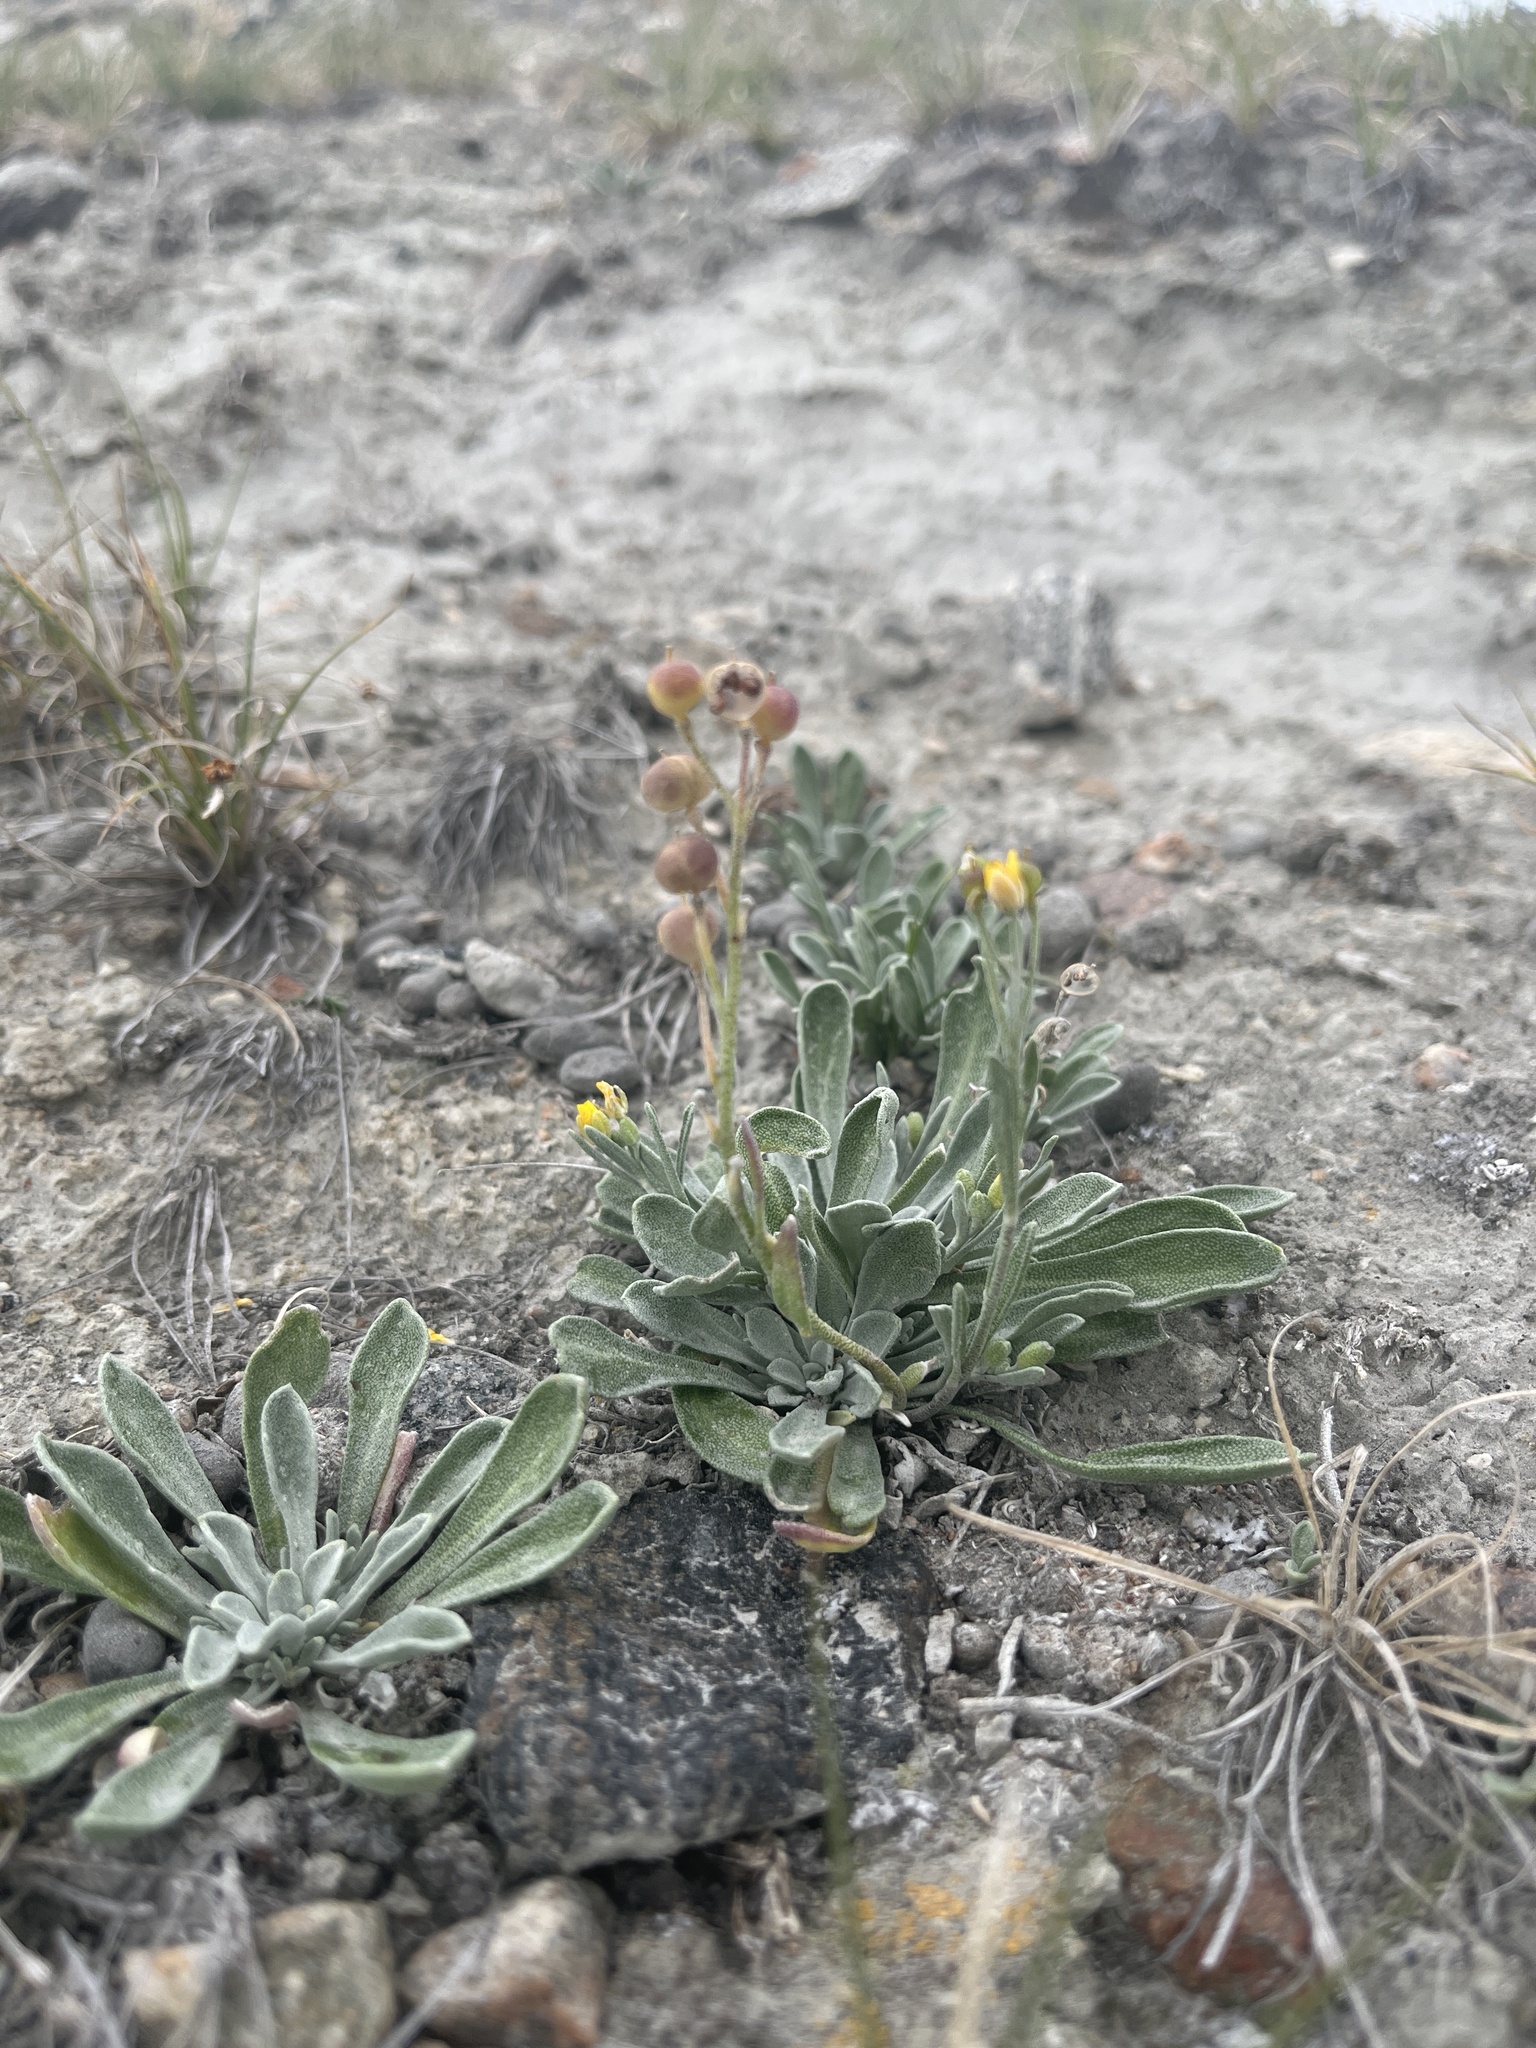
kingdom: Plantae
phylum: Tracheophyta
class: Magnoliopsida
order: Brassicales
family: Brassicaceae
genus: Physaria
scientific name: Physaria arctica
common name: Arctic bladderpod
